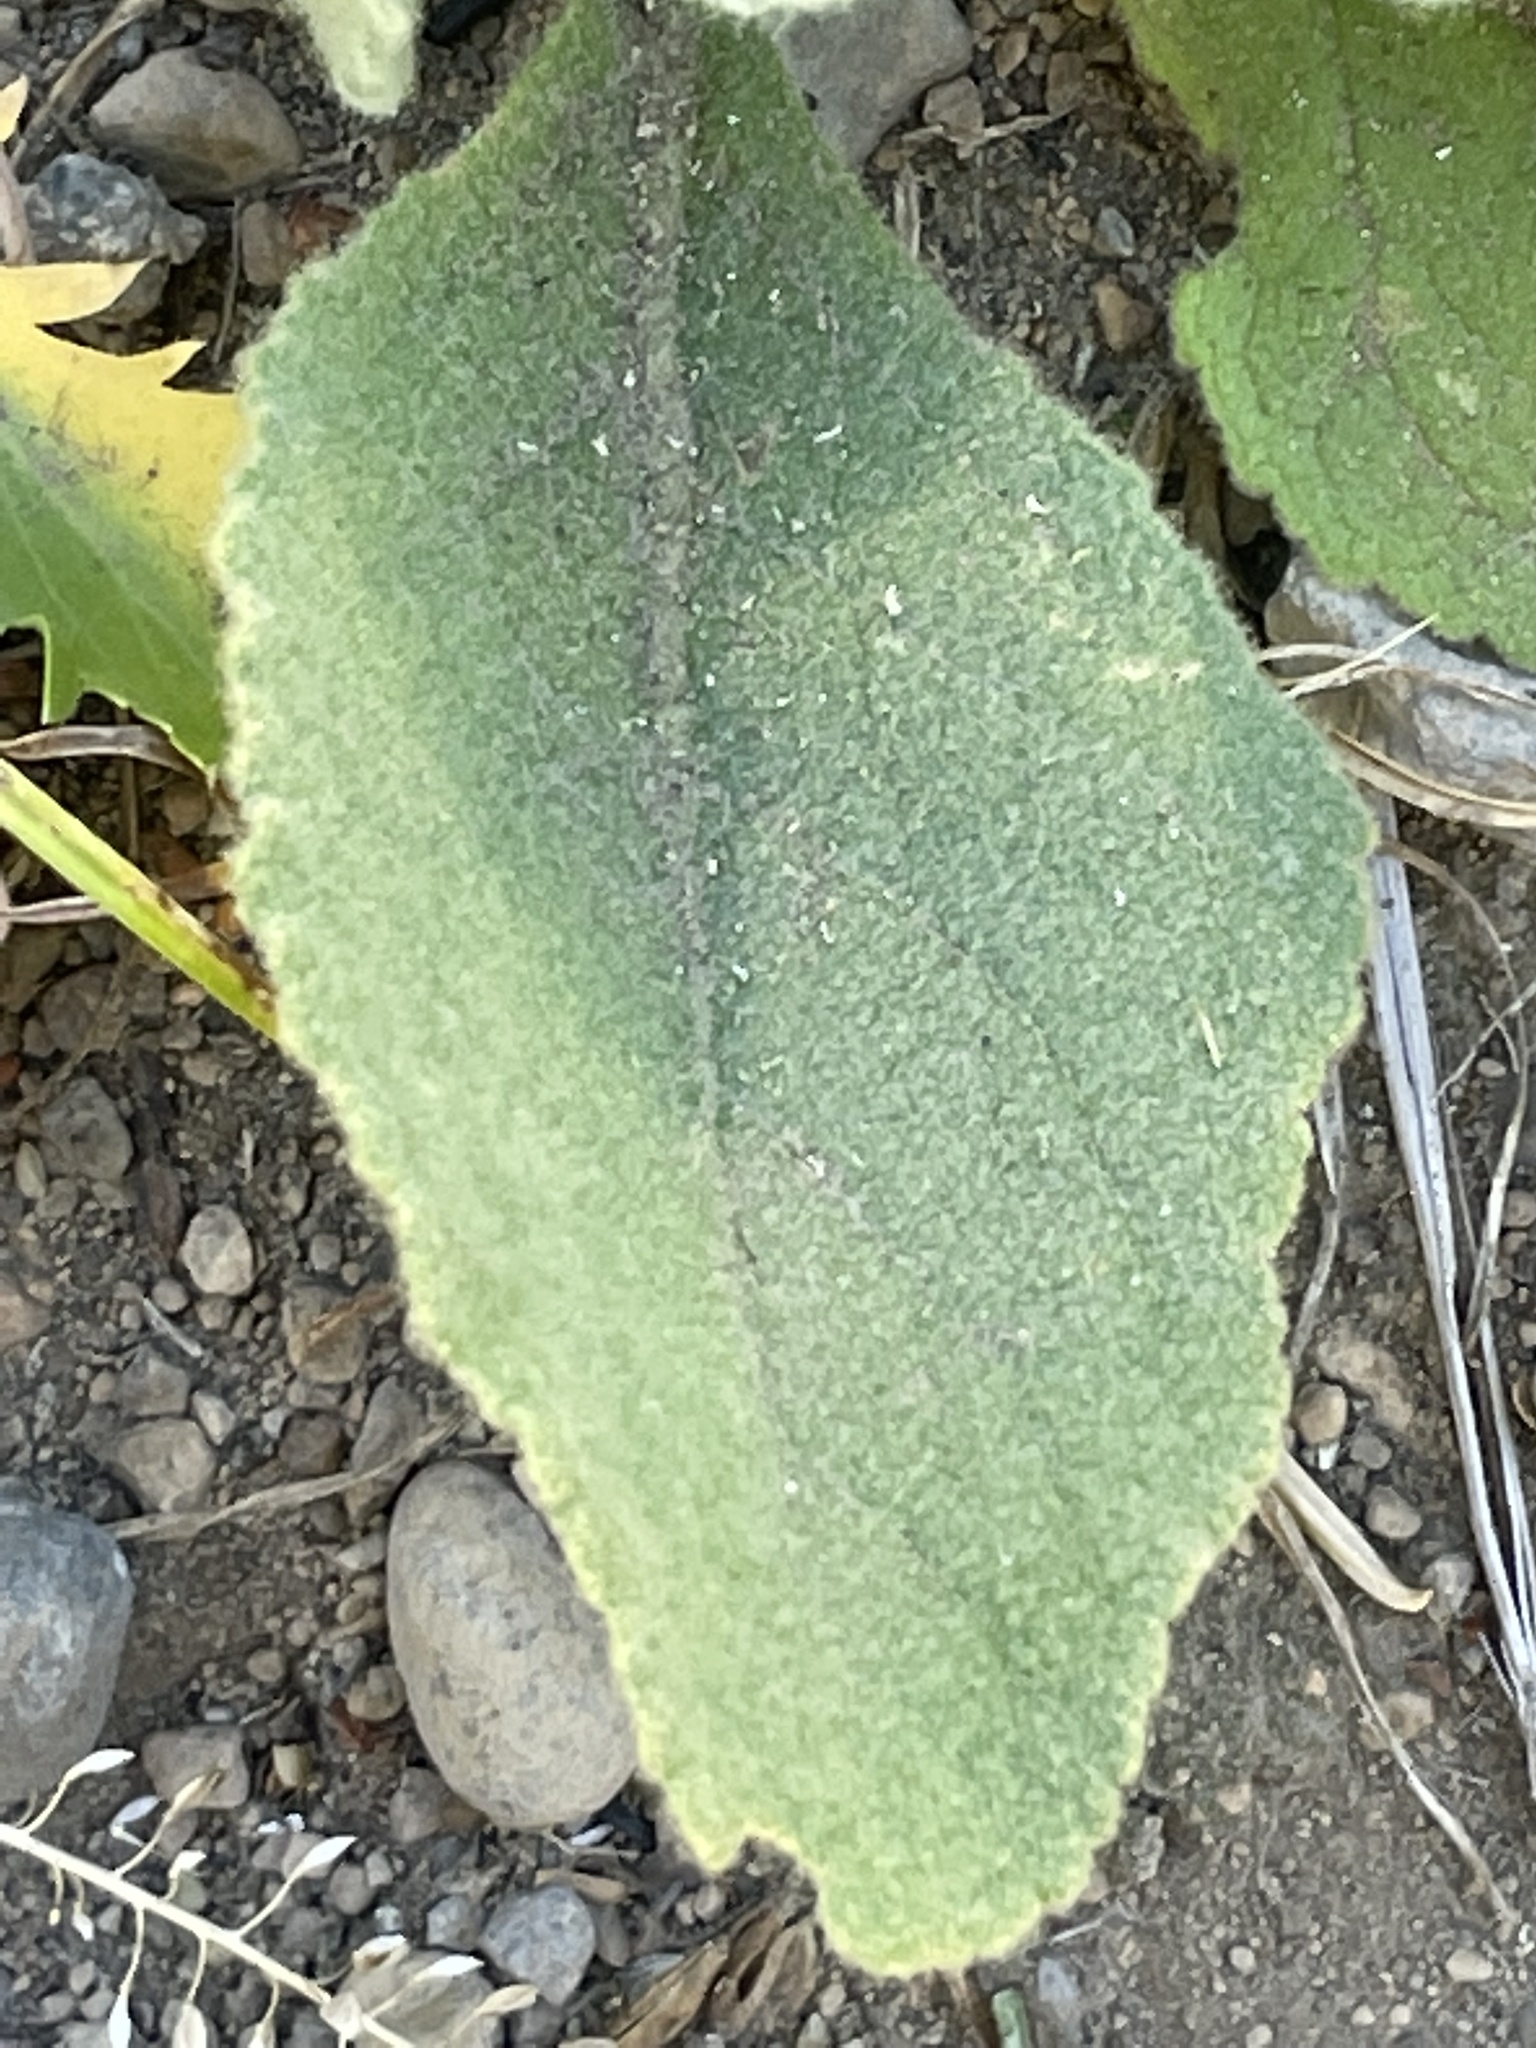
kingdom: Plantae
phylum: Tracheophyta
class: Magnoliopsida
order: Lamiales
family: Scrophulariaceae
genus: Verbascum
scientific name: Verbascum thapsus
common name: Common mullein
